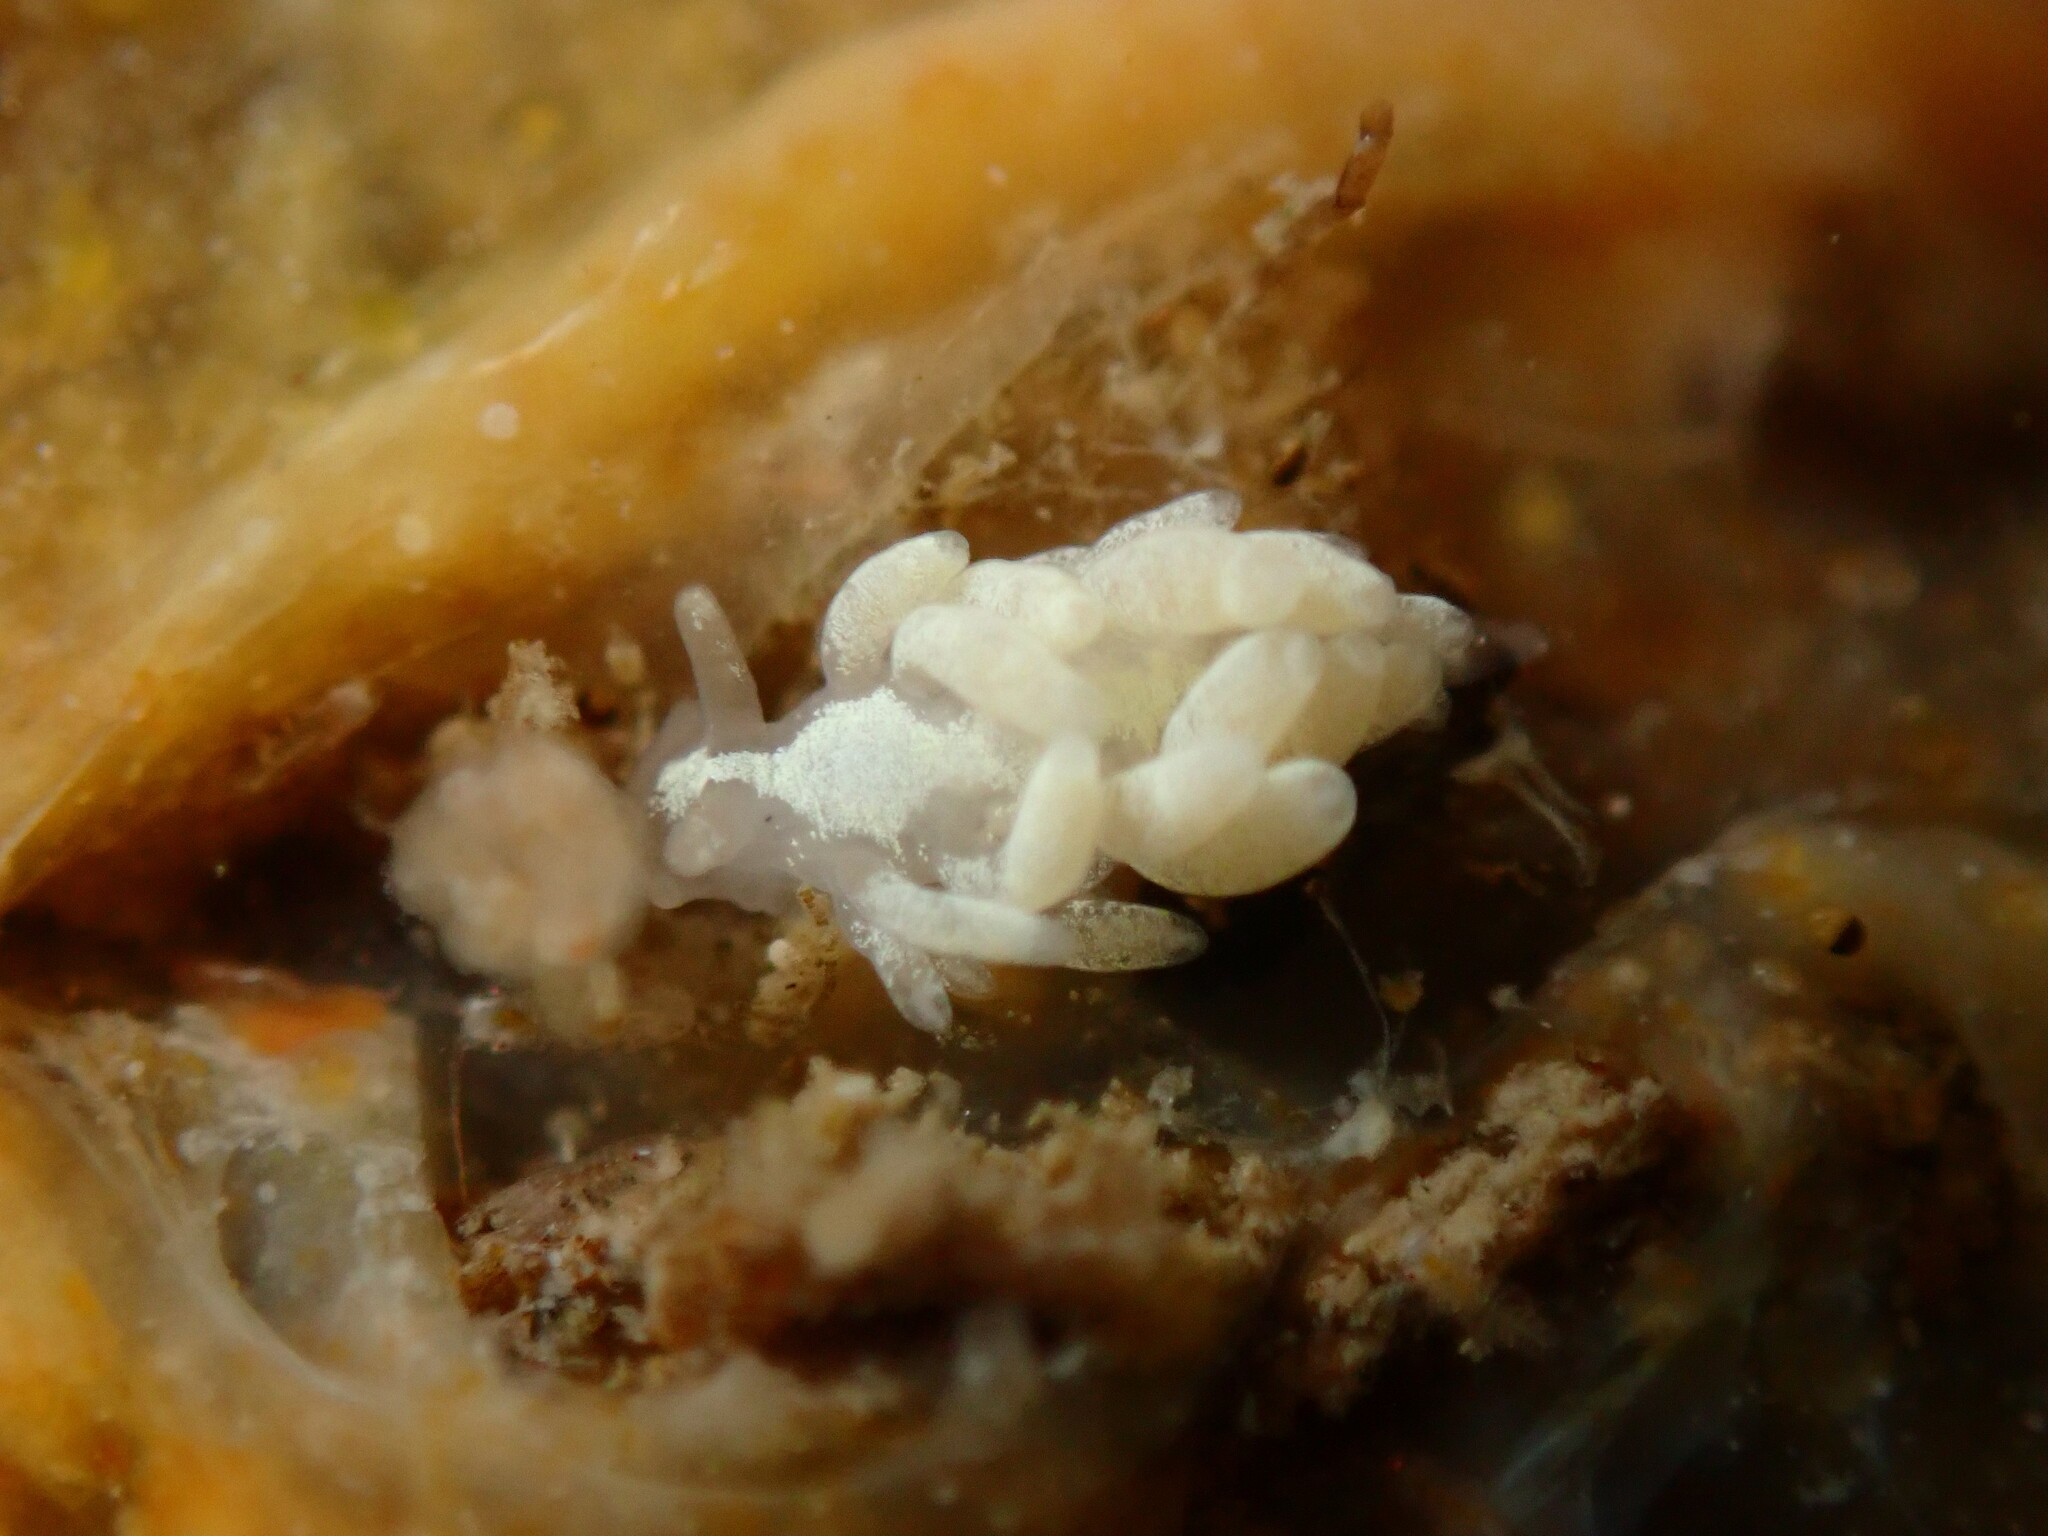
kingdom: Animalia
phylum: Mollusca
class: Gastropoda
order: Nudibranchia
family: Trinchesiidae
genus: Trinchesia
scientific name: Trinchesia albocrusta
